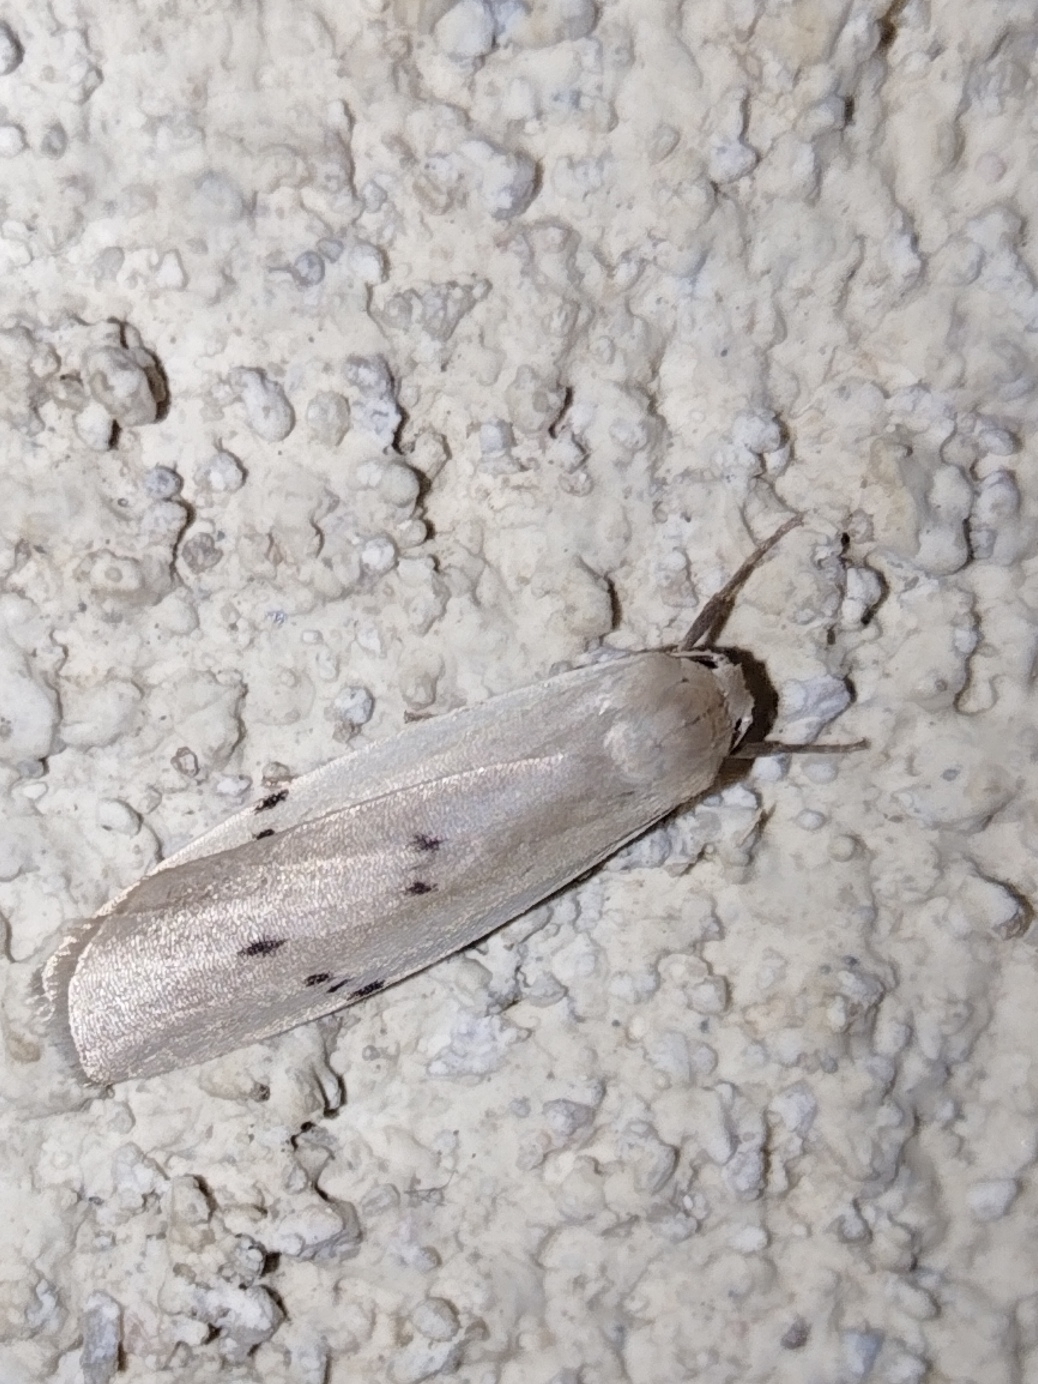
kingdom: Animalia
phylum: Arthropoda
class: Insecta
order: Lepidoptera
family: Erebidae
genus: Pelosia
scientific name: Pelosia muscerda
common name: Dotted footman
